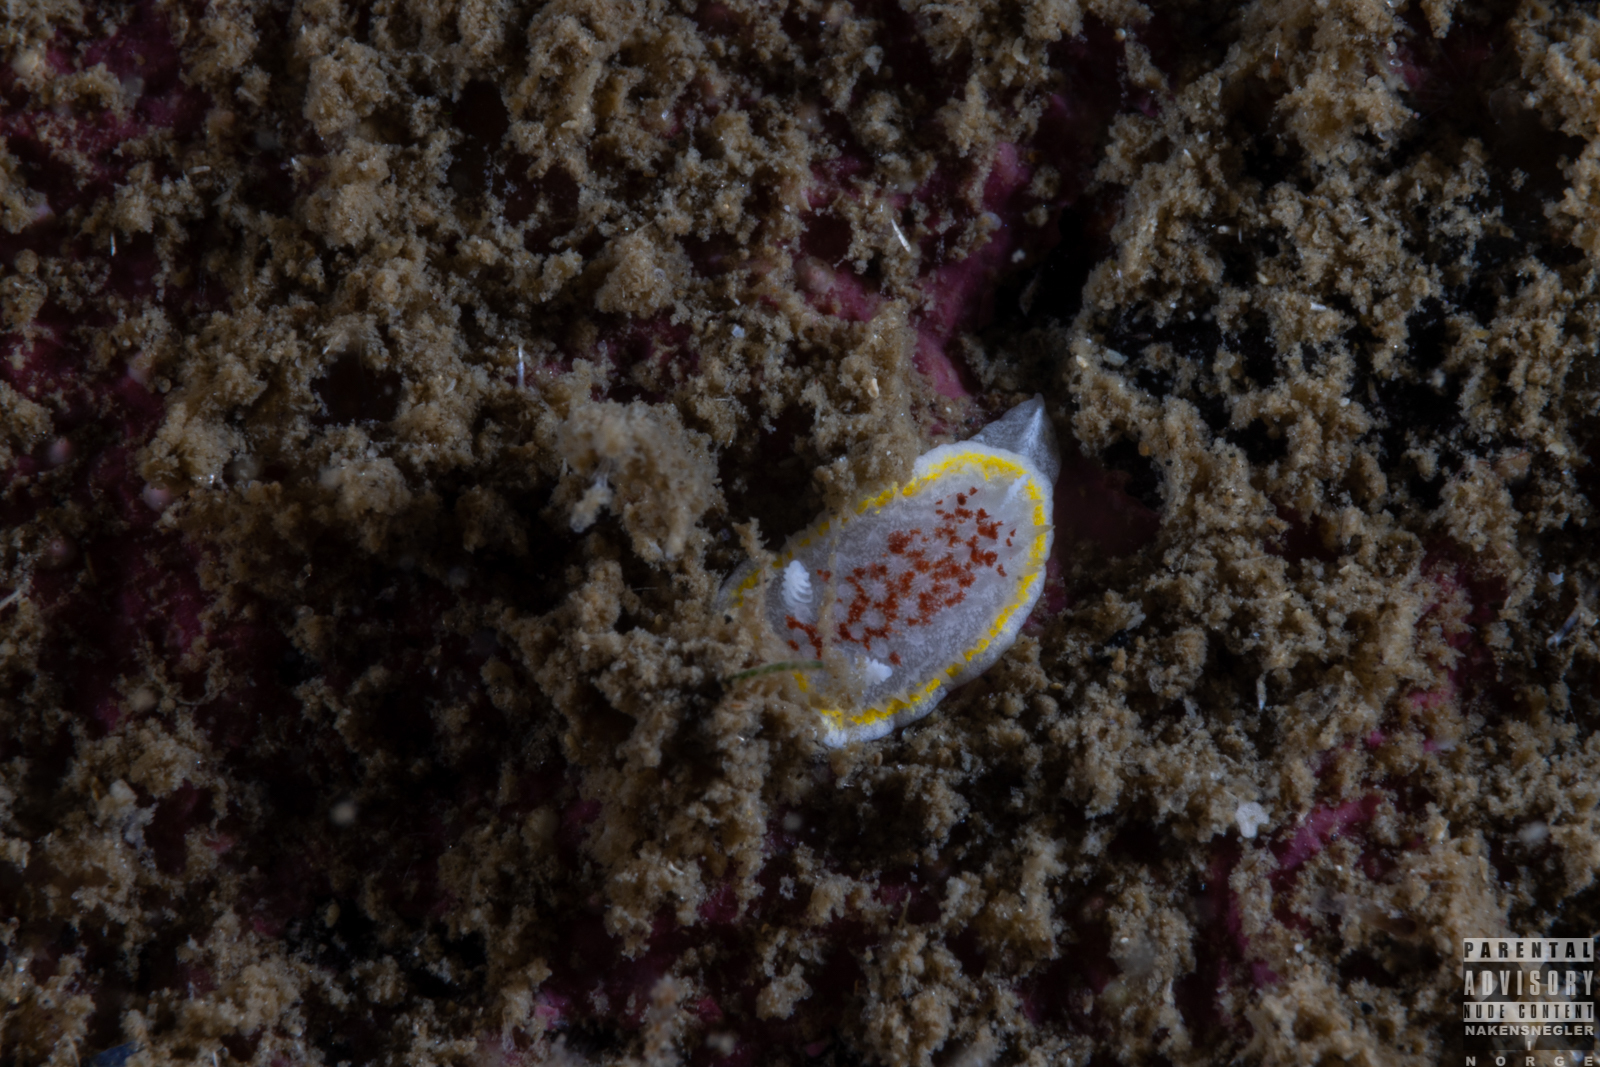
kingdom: Animalia
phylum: Mollusca
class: Gastropoda
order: Nudibranchia
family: Calycidorididae
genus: Diaphorodoris
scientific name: Diaphorodoris luteocincta
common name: Fried egg nudibranch
